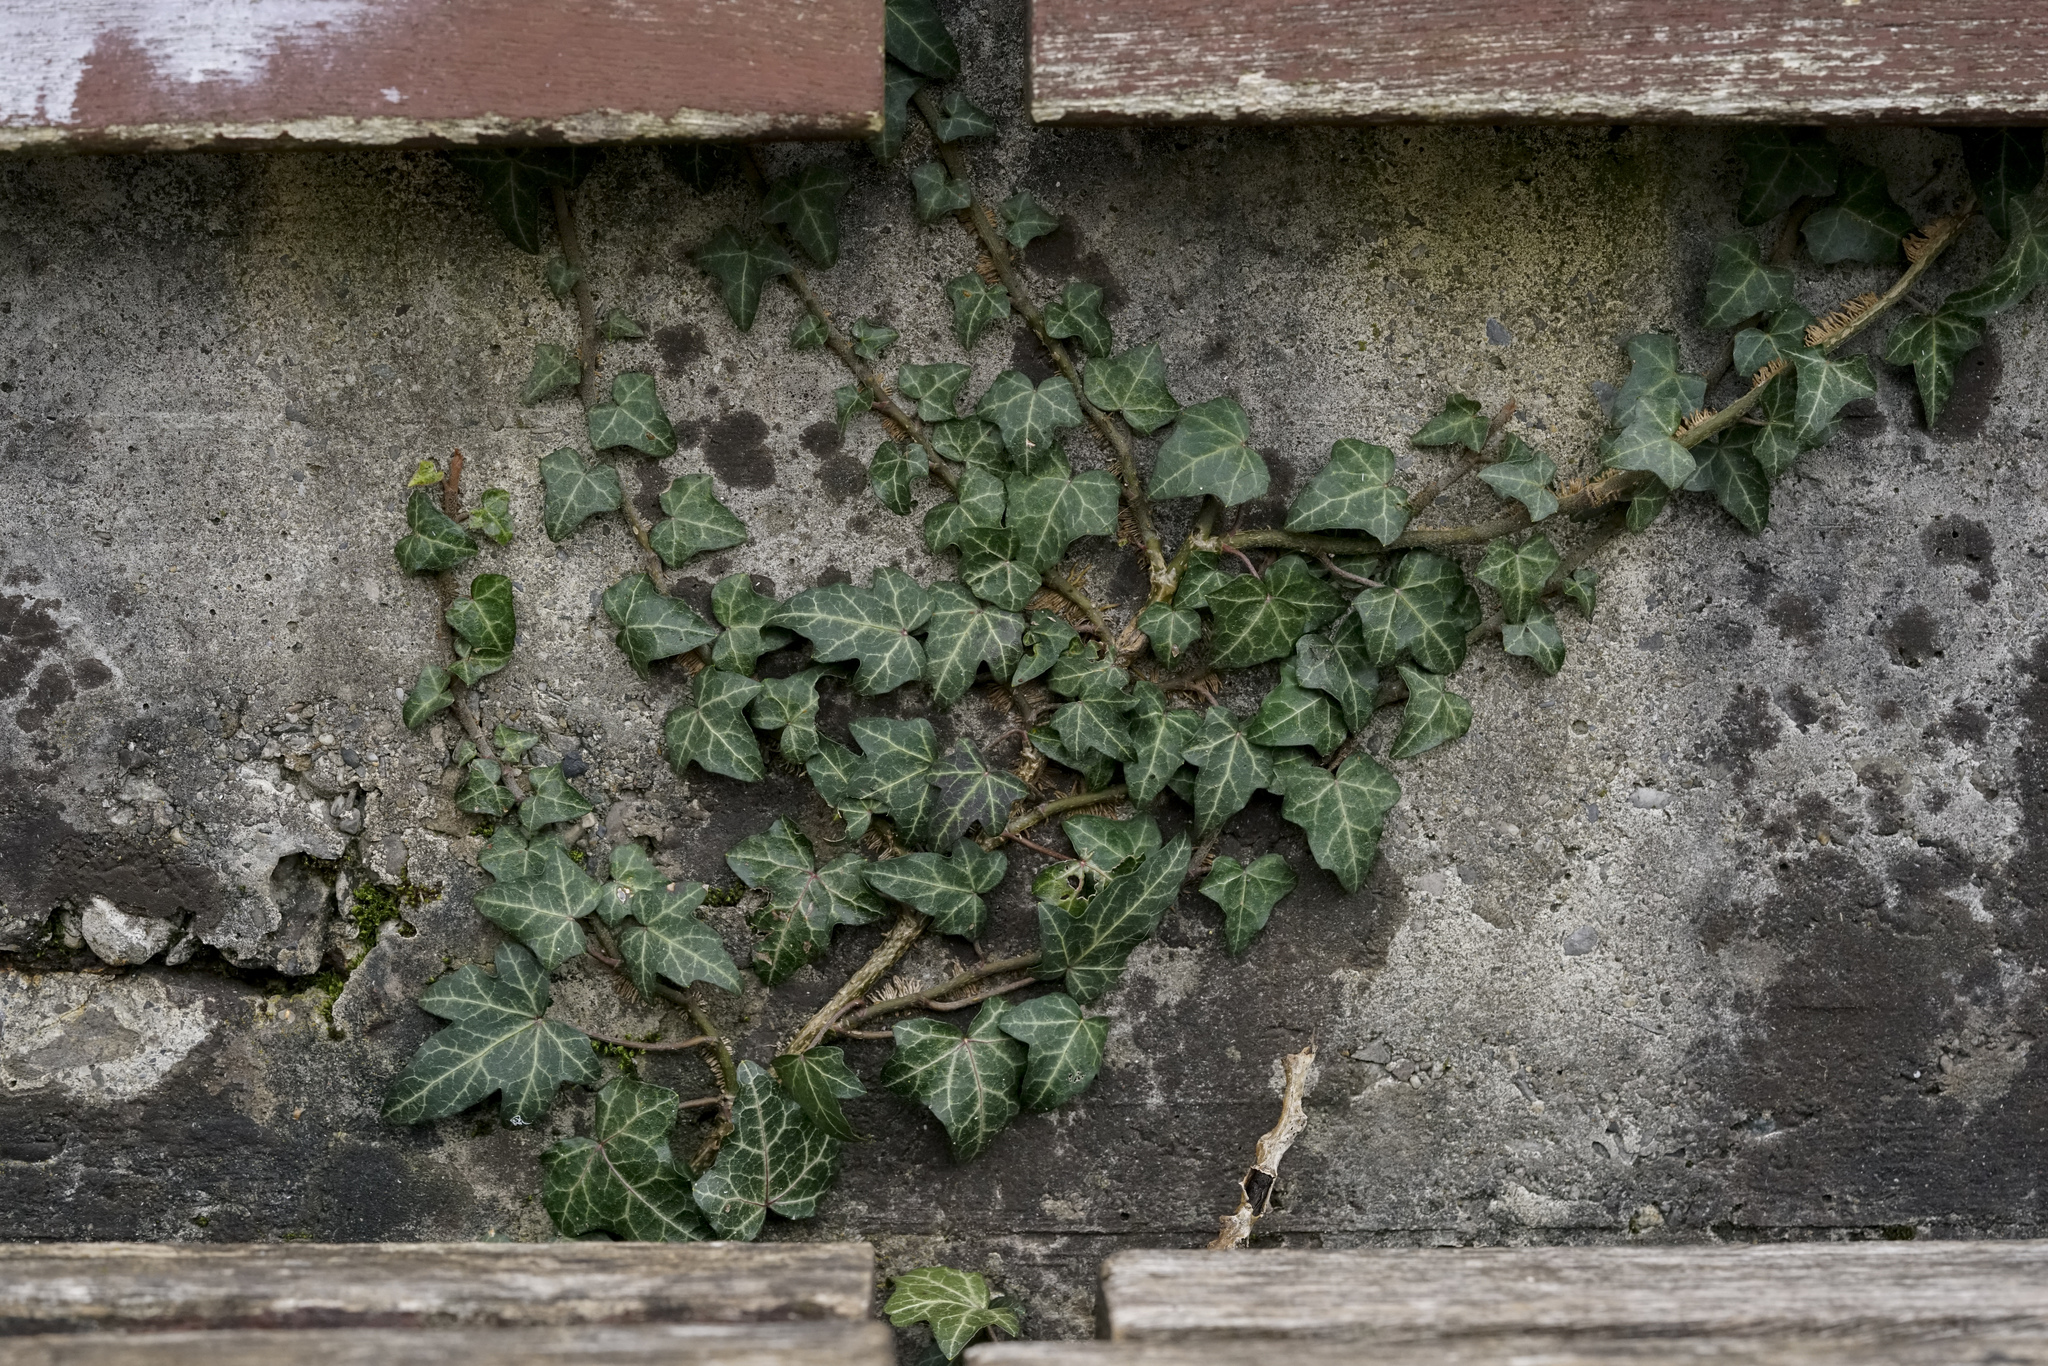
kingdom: Plantae
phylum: Tracheophyta
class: Magnoliopsida
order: Apiales
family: Araliaceae
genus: Hedera
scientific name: Hedera helix
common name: Ivy
